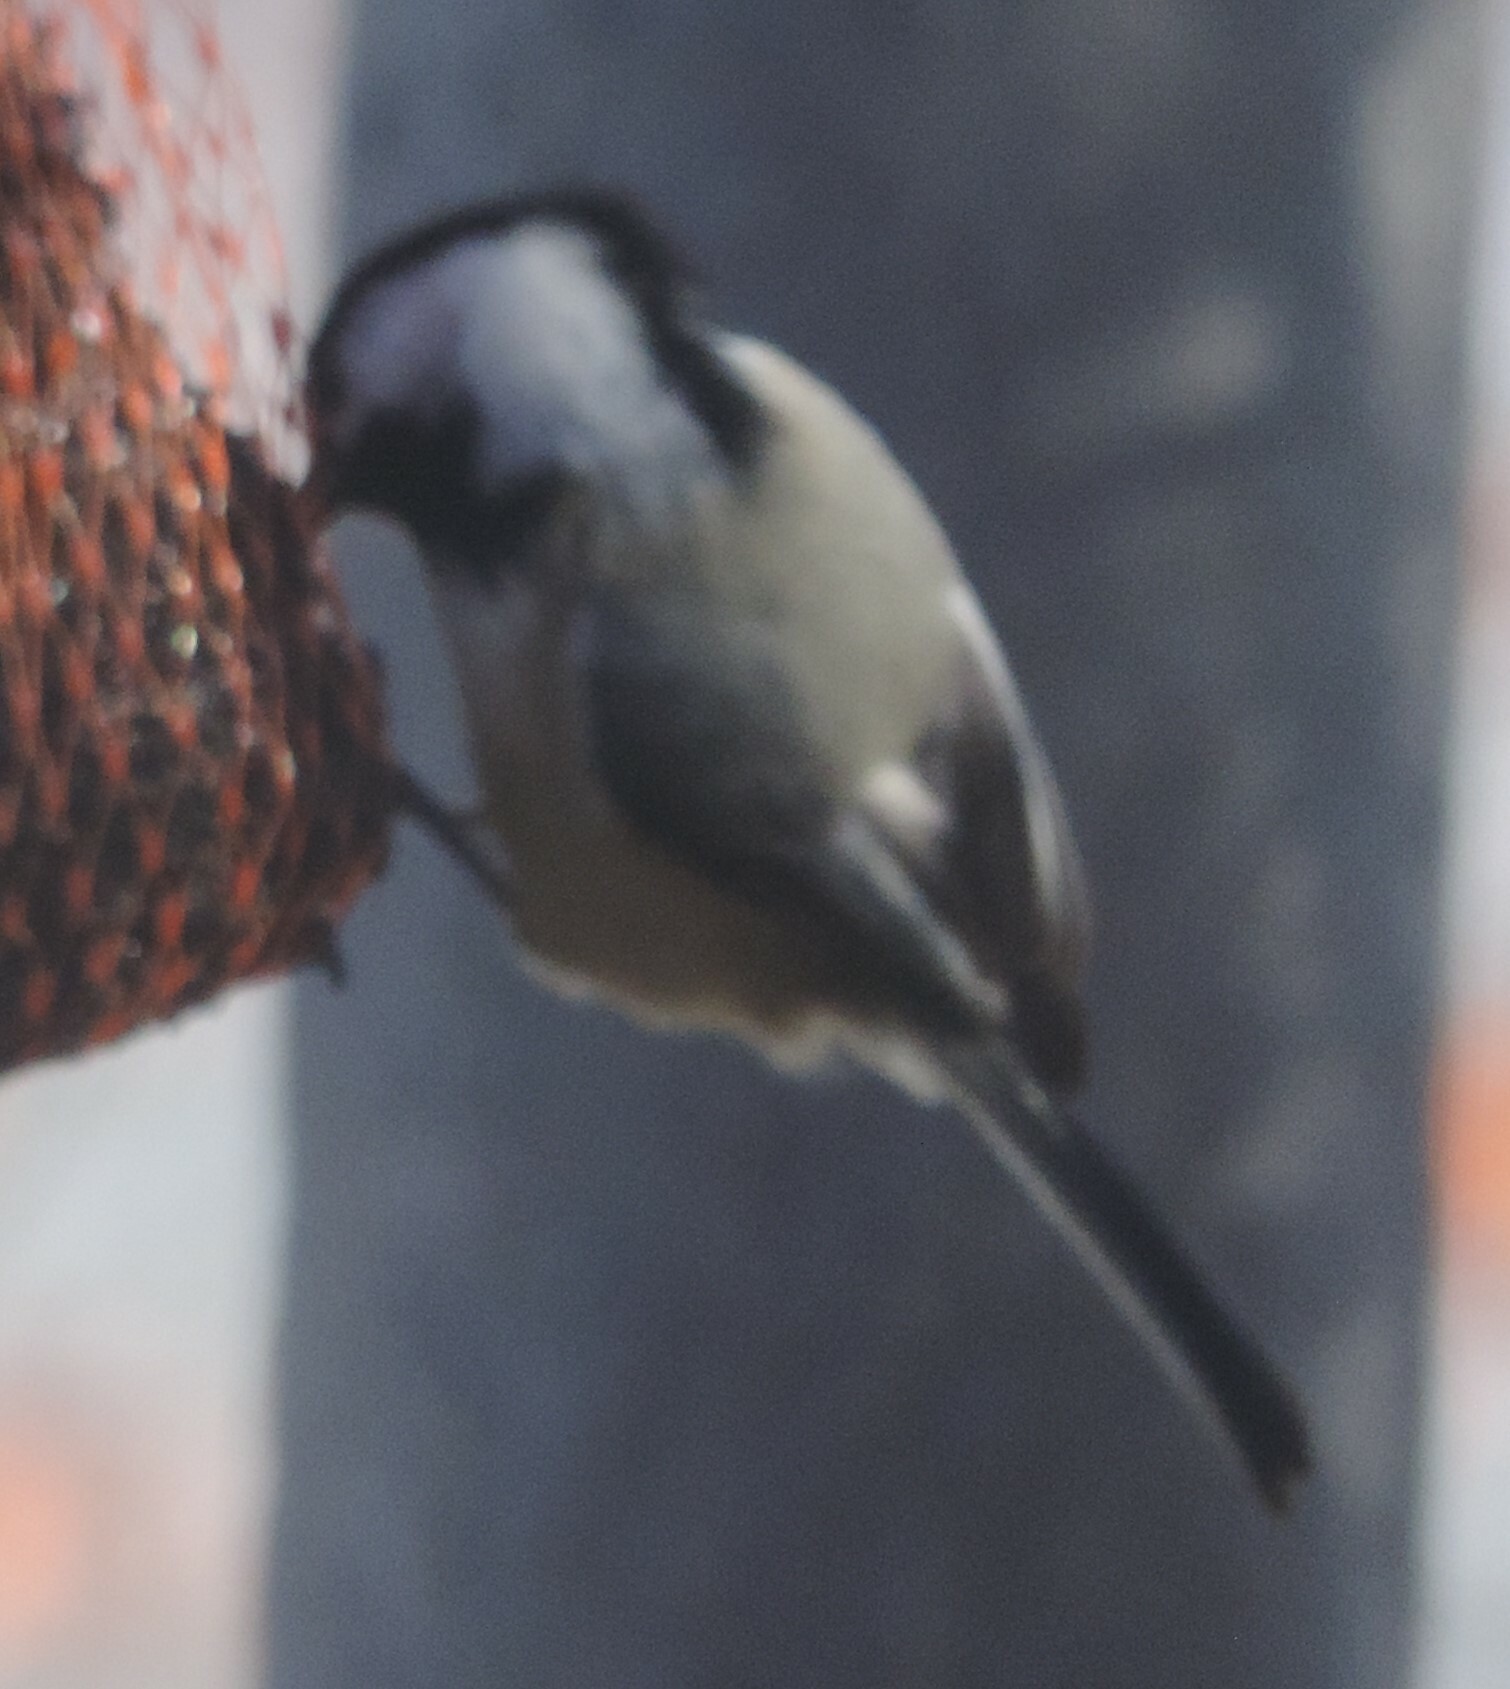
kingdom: Animalia
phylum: Chordata
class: Aves
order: Passeriformes
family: Paridae
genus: Poecile
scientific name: Poecile atricapillus
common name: Black-capped chickadee
